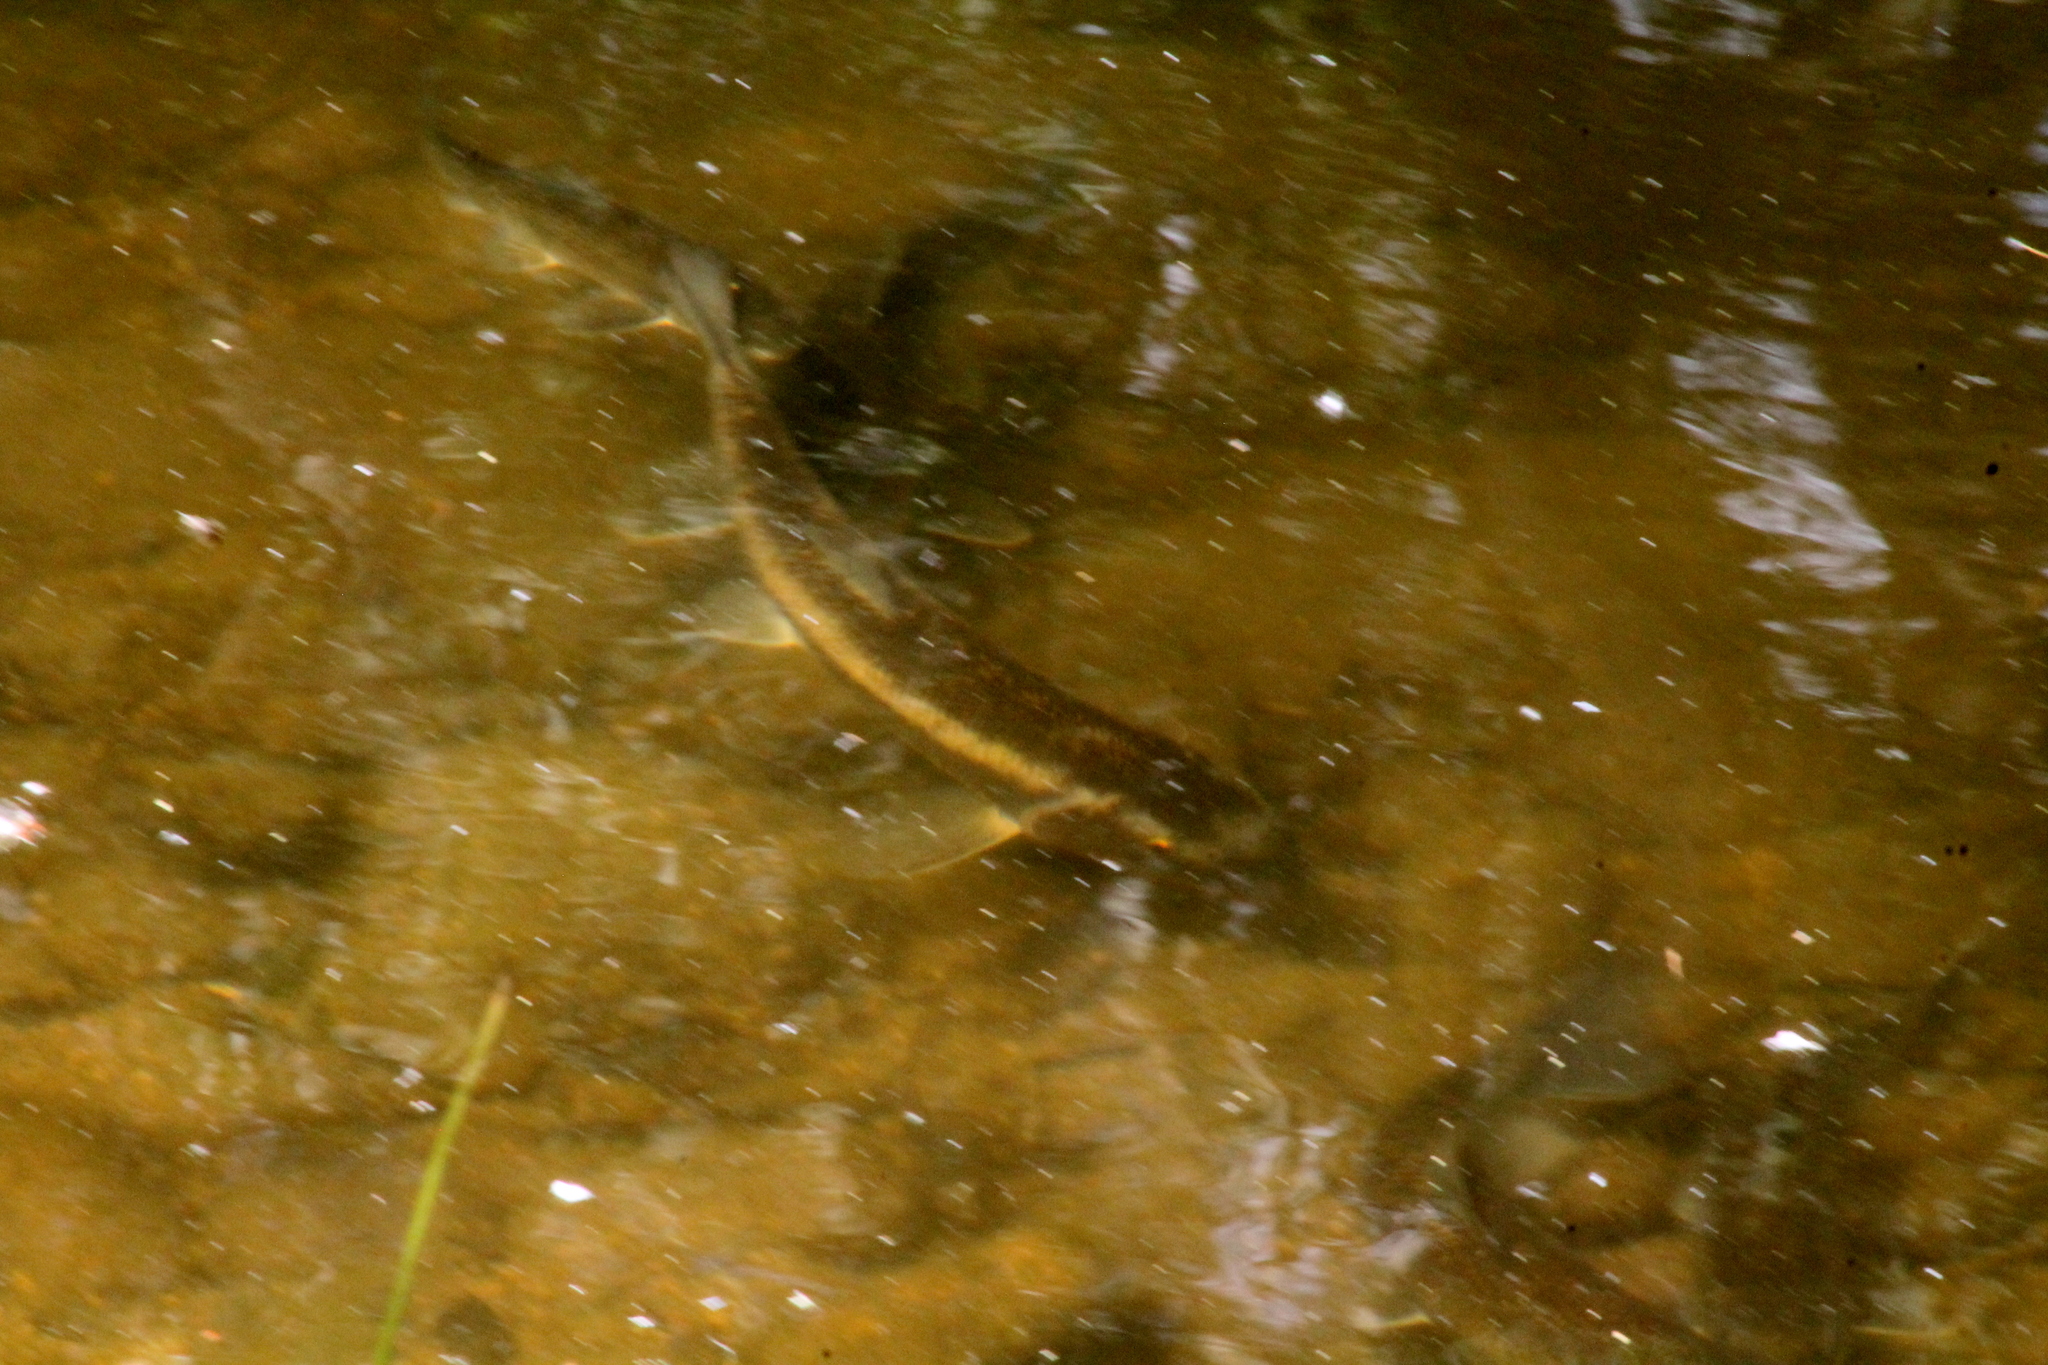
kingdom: Animalia
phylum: Chordata
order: Cypriniformes
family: Catostomidae
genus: Catostomus
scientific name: Catostomus commersonii
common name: White sucker
